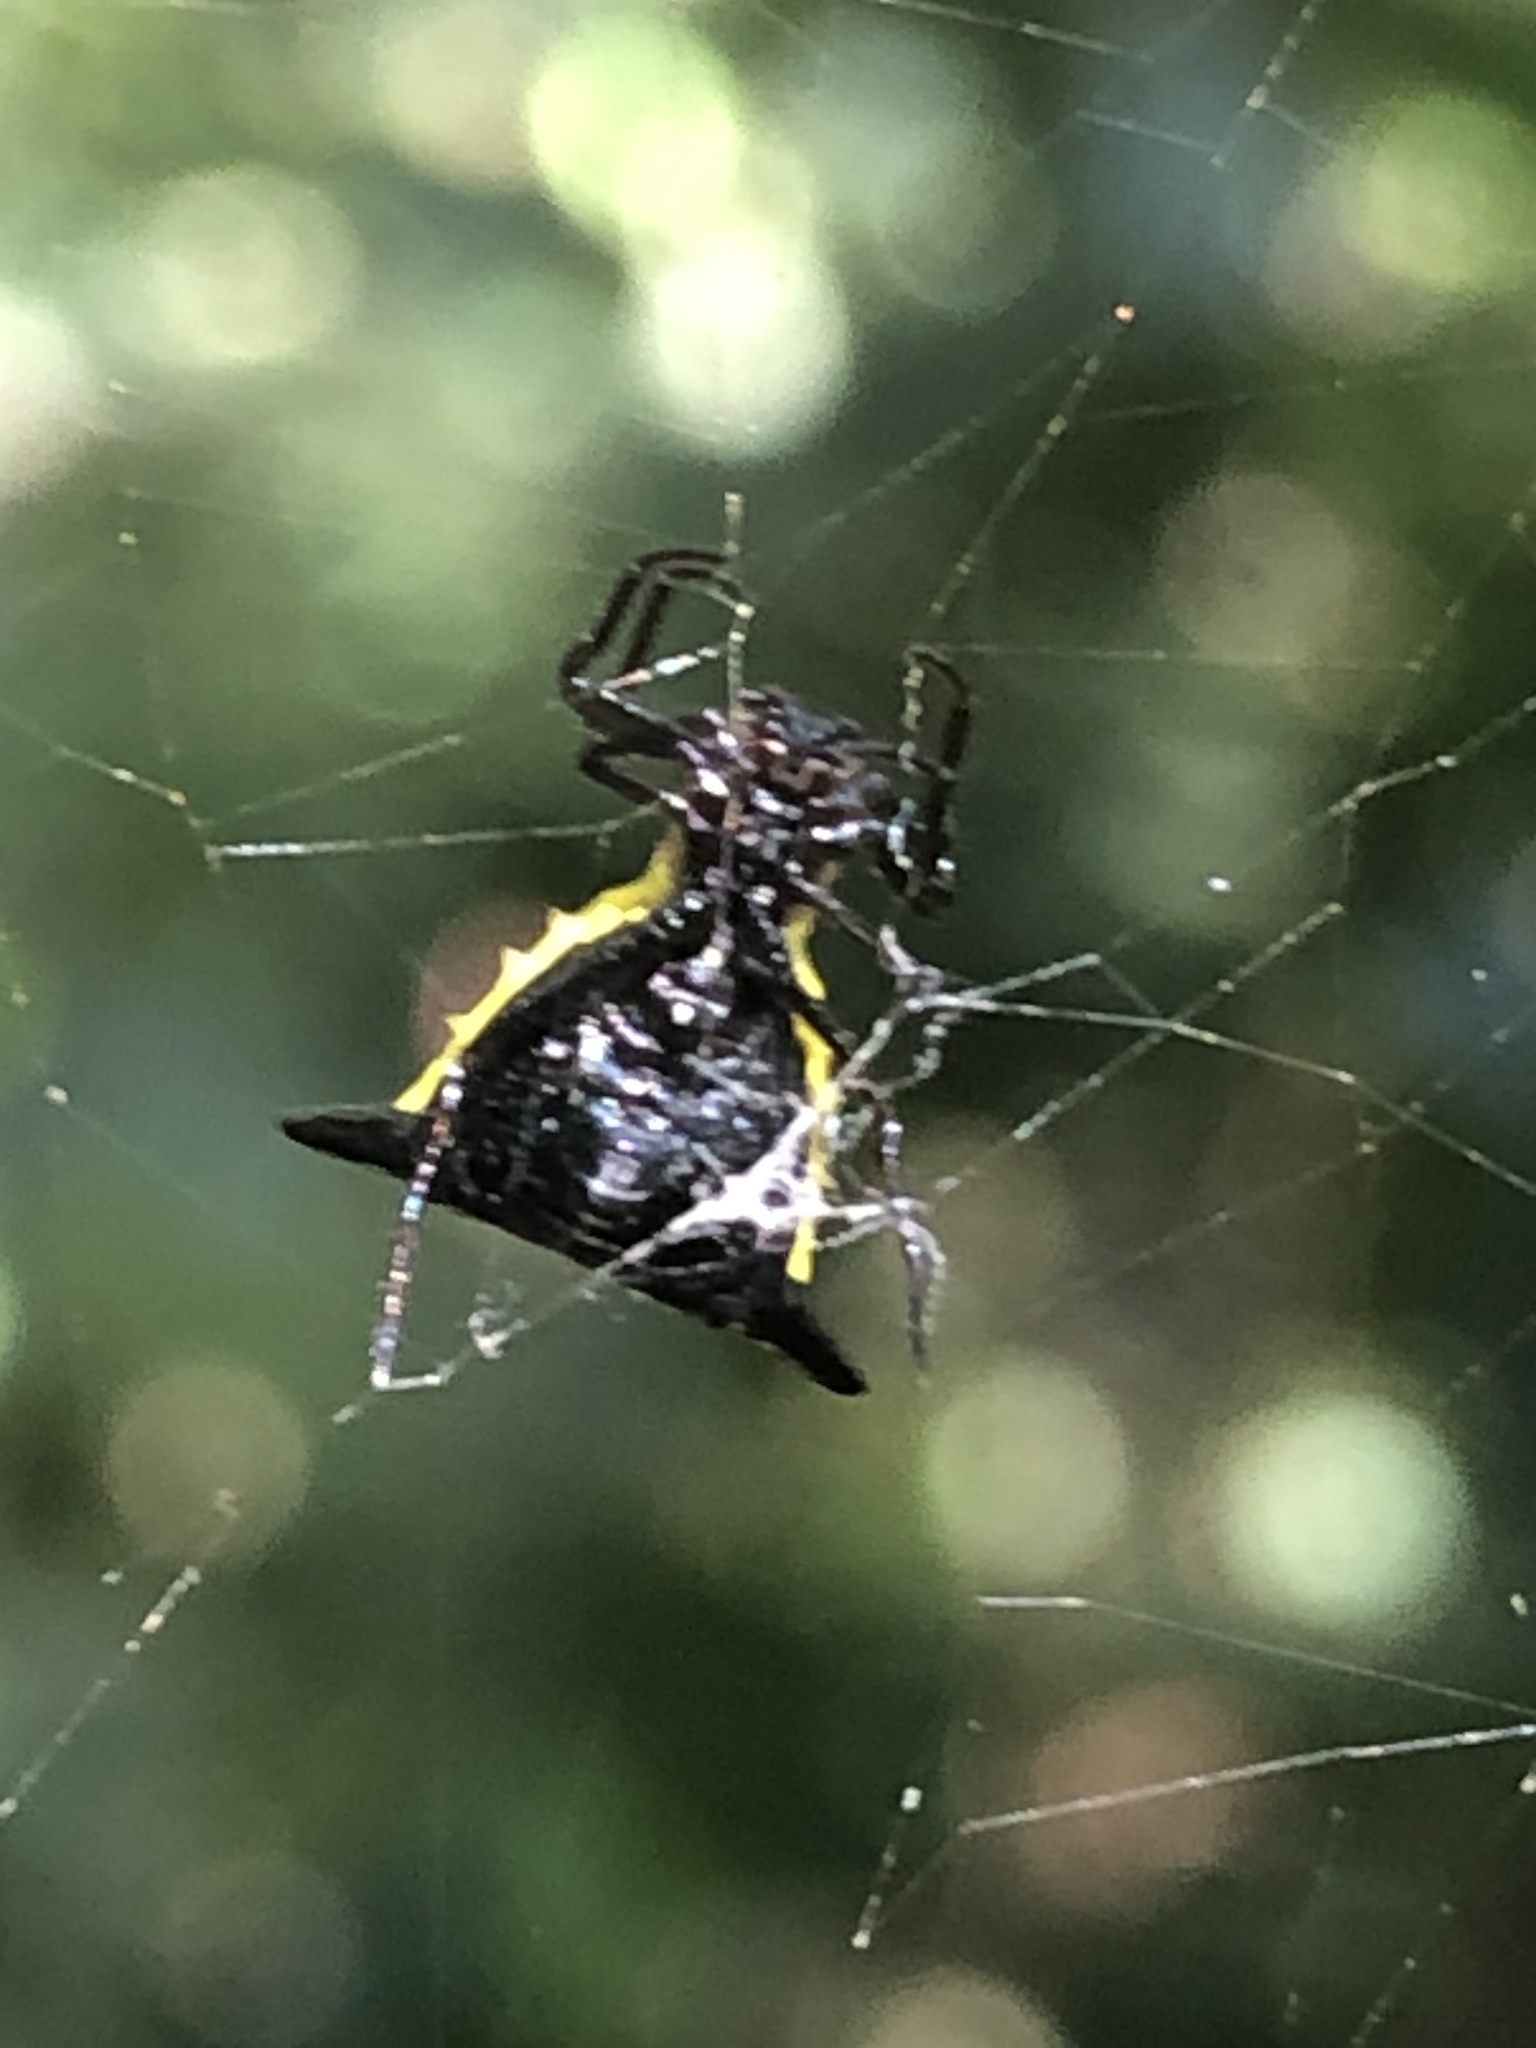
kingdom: Animalia
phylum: Arthropoda
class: Arachnida
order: Araneae
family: Araneidae
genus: Micrathena
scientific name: Micrathena pungens
